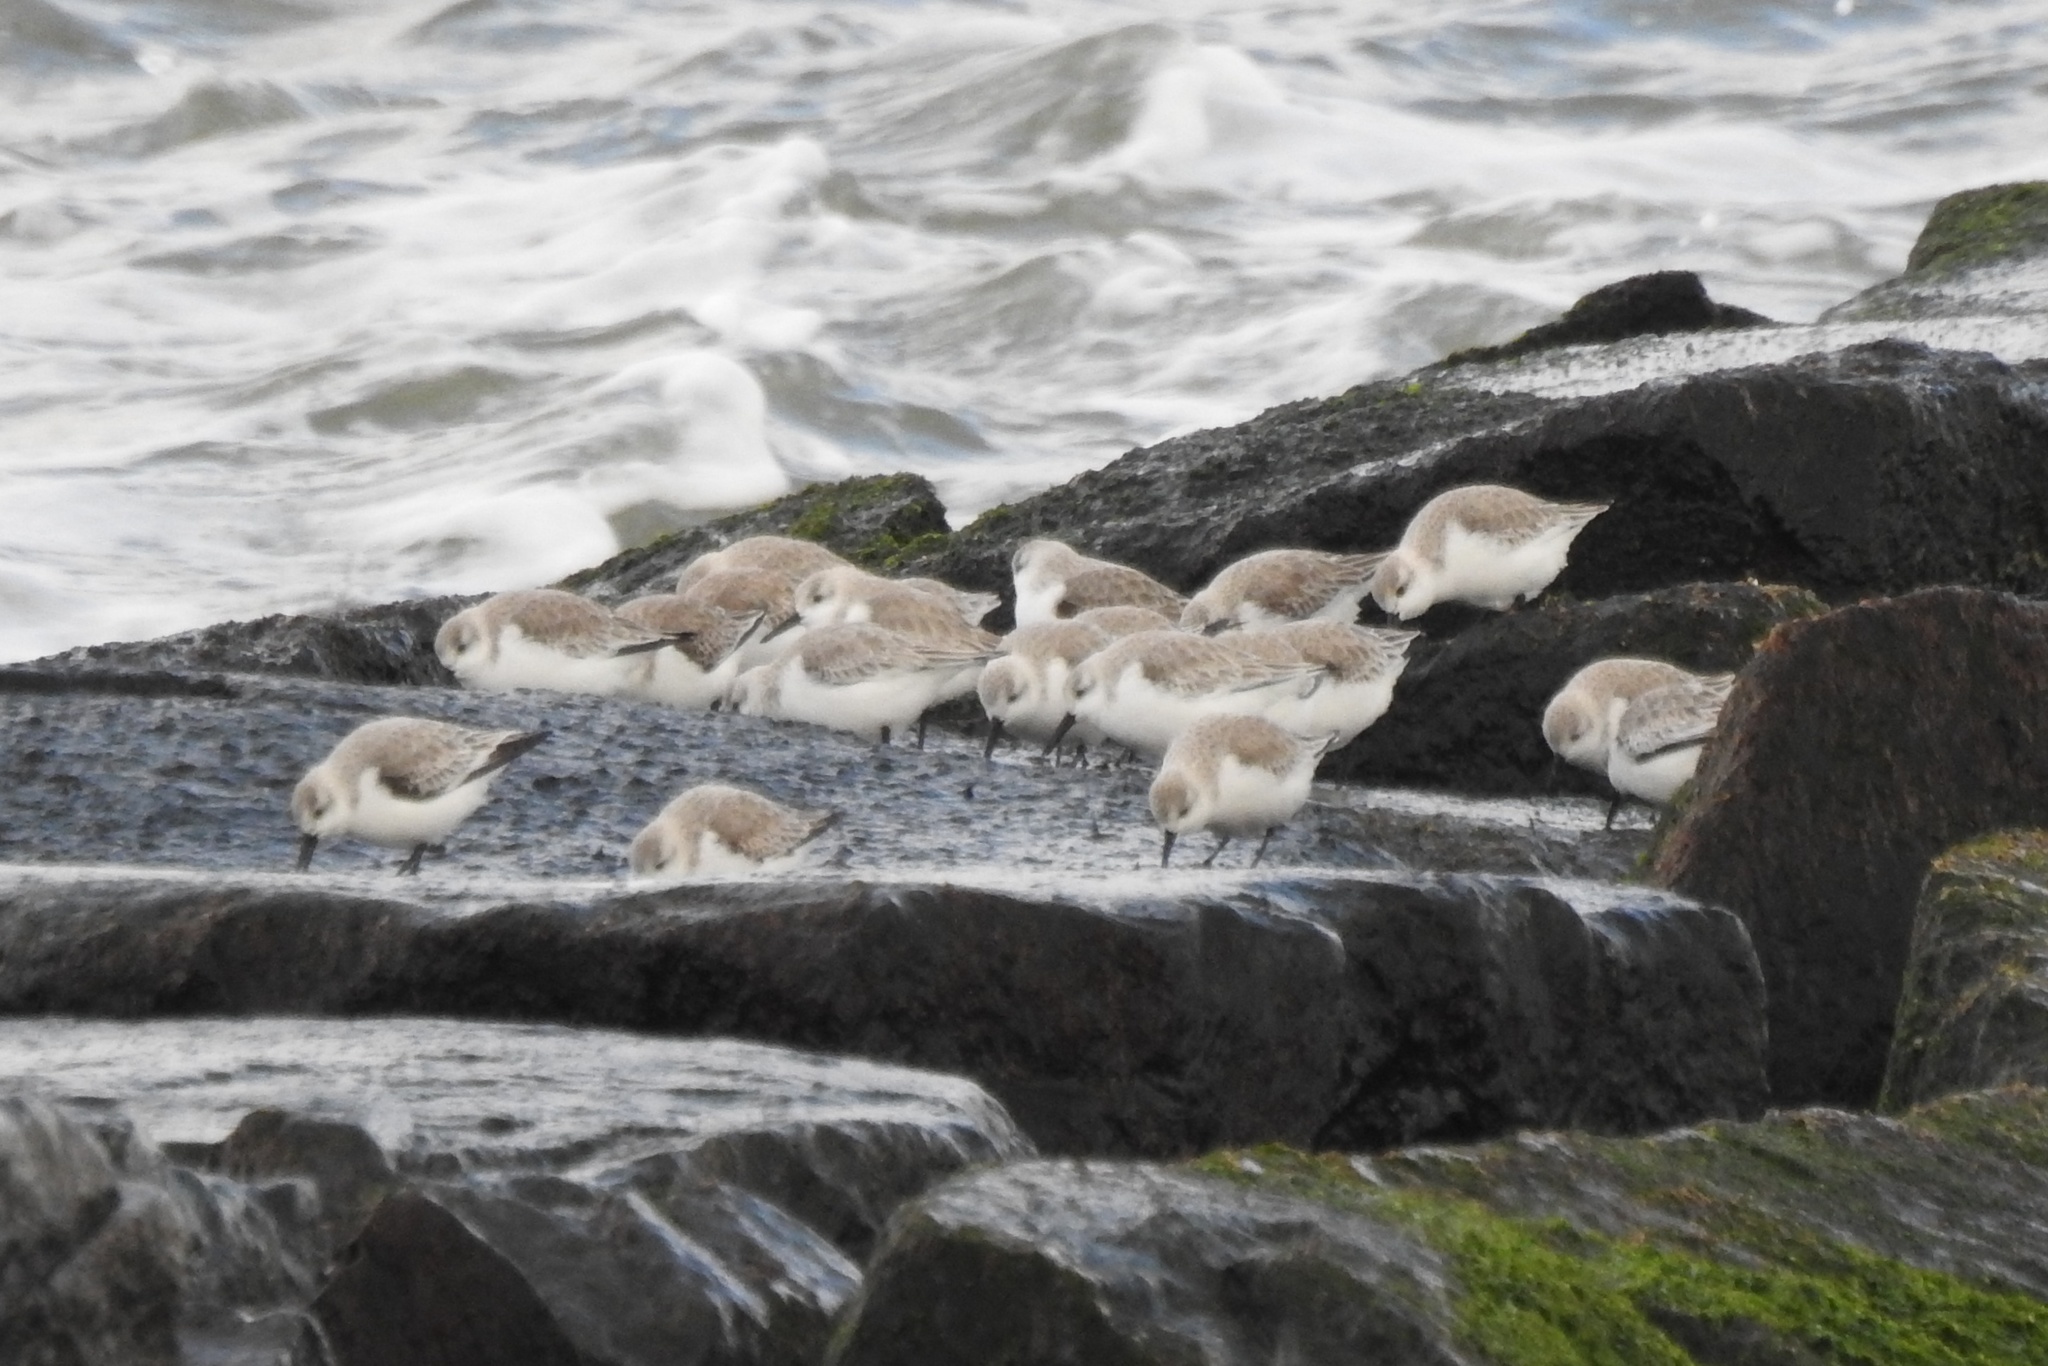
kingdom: Animalia
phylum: Chordata
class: Aves
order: Charadriiformes
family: Scolopacidae
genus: Calidris
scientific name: Calidris alba
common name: Sanderling
